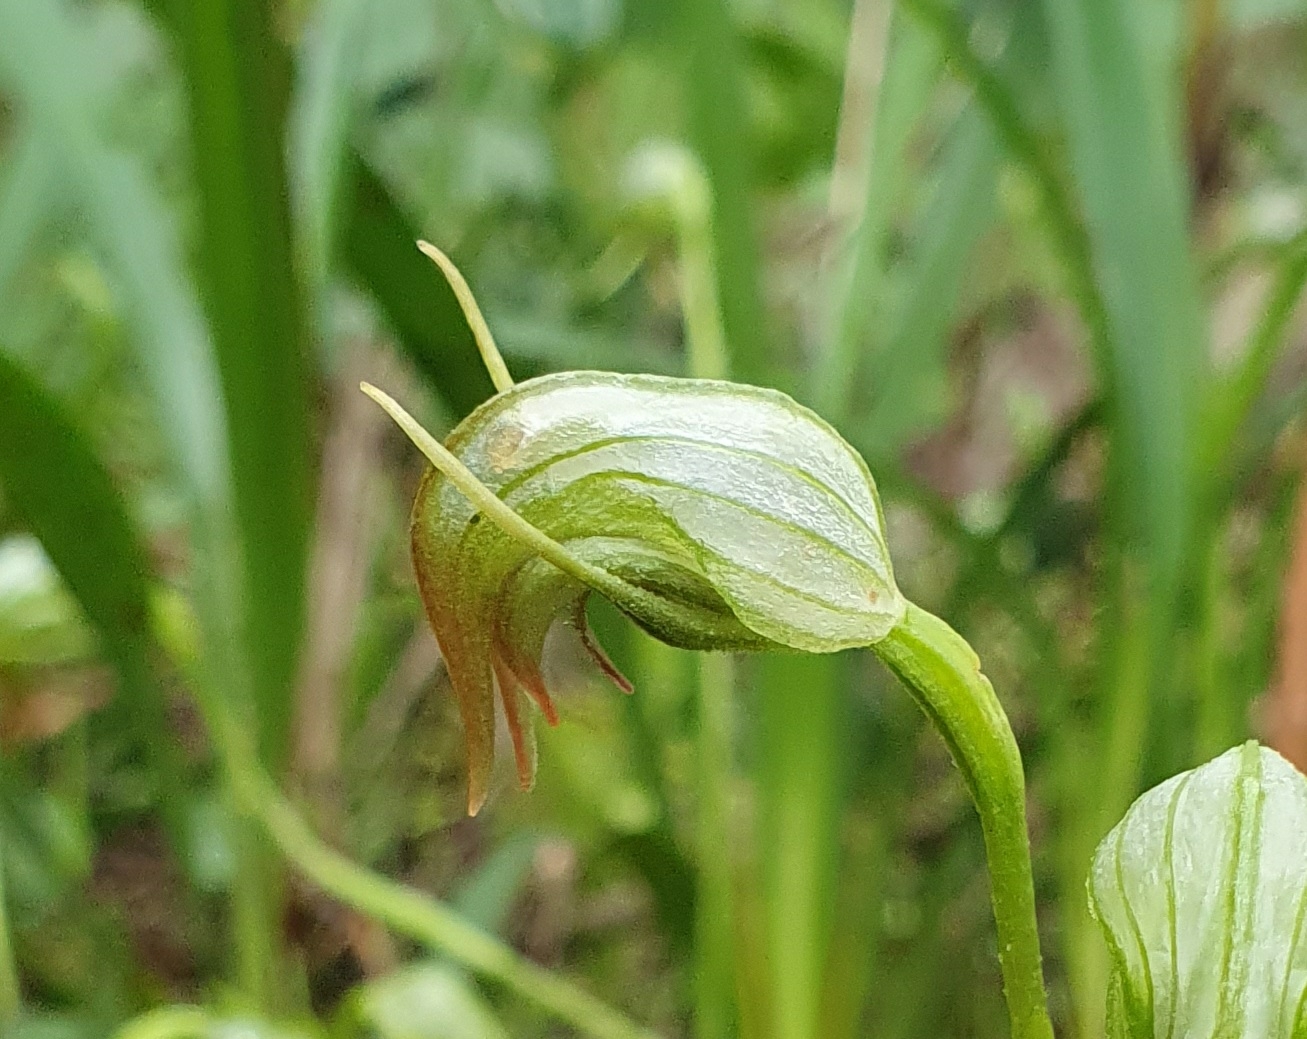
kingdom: Plantae
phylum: Tracheophyta
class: Liliopsida
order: Asparagales
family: Orchidaceae
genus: Pterostylis
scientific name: Pterostylis nutans
